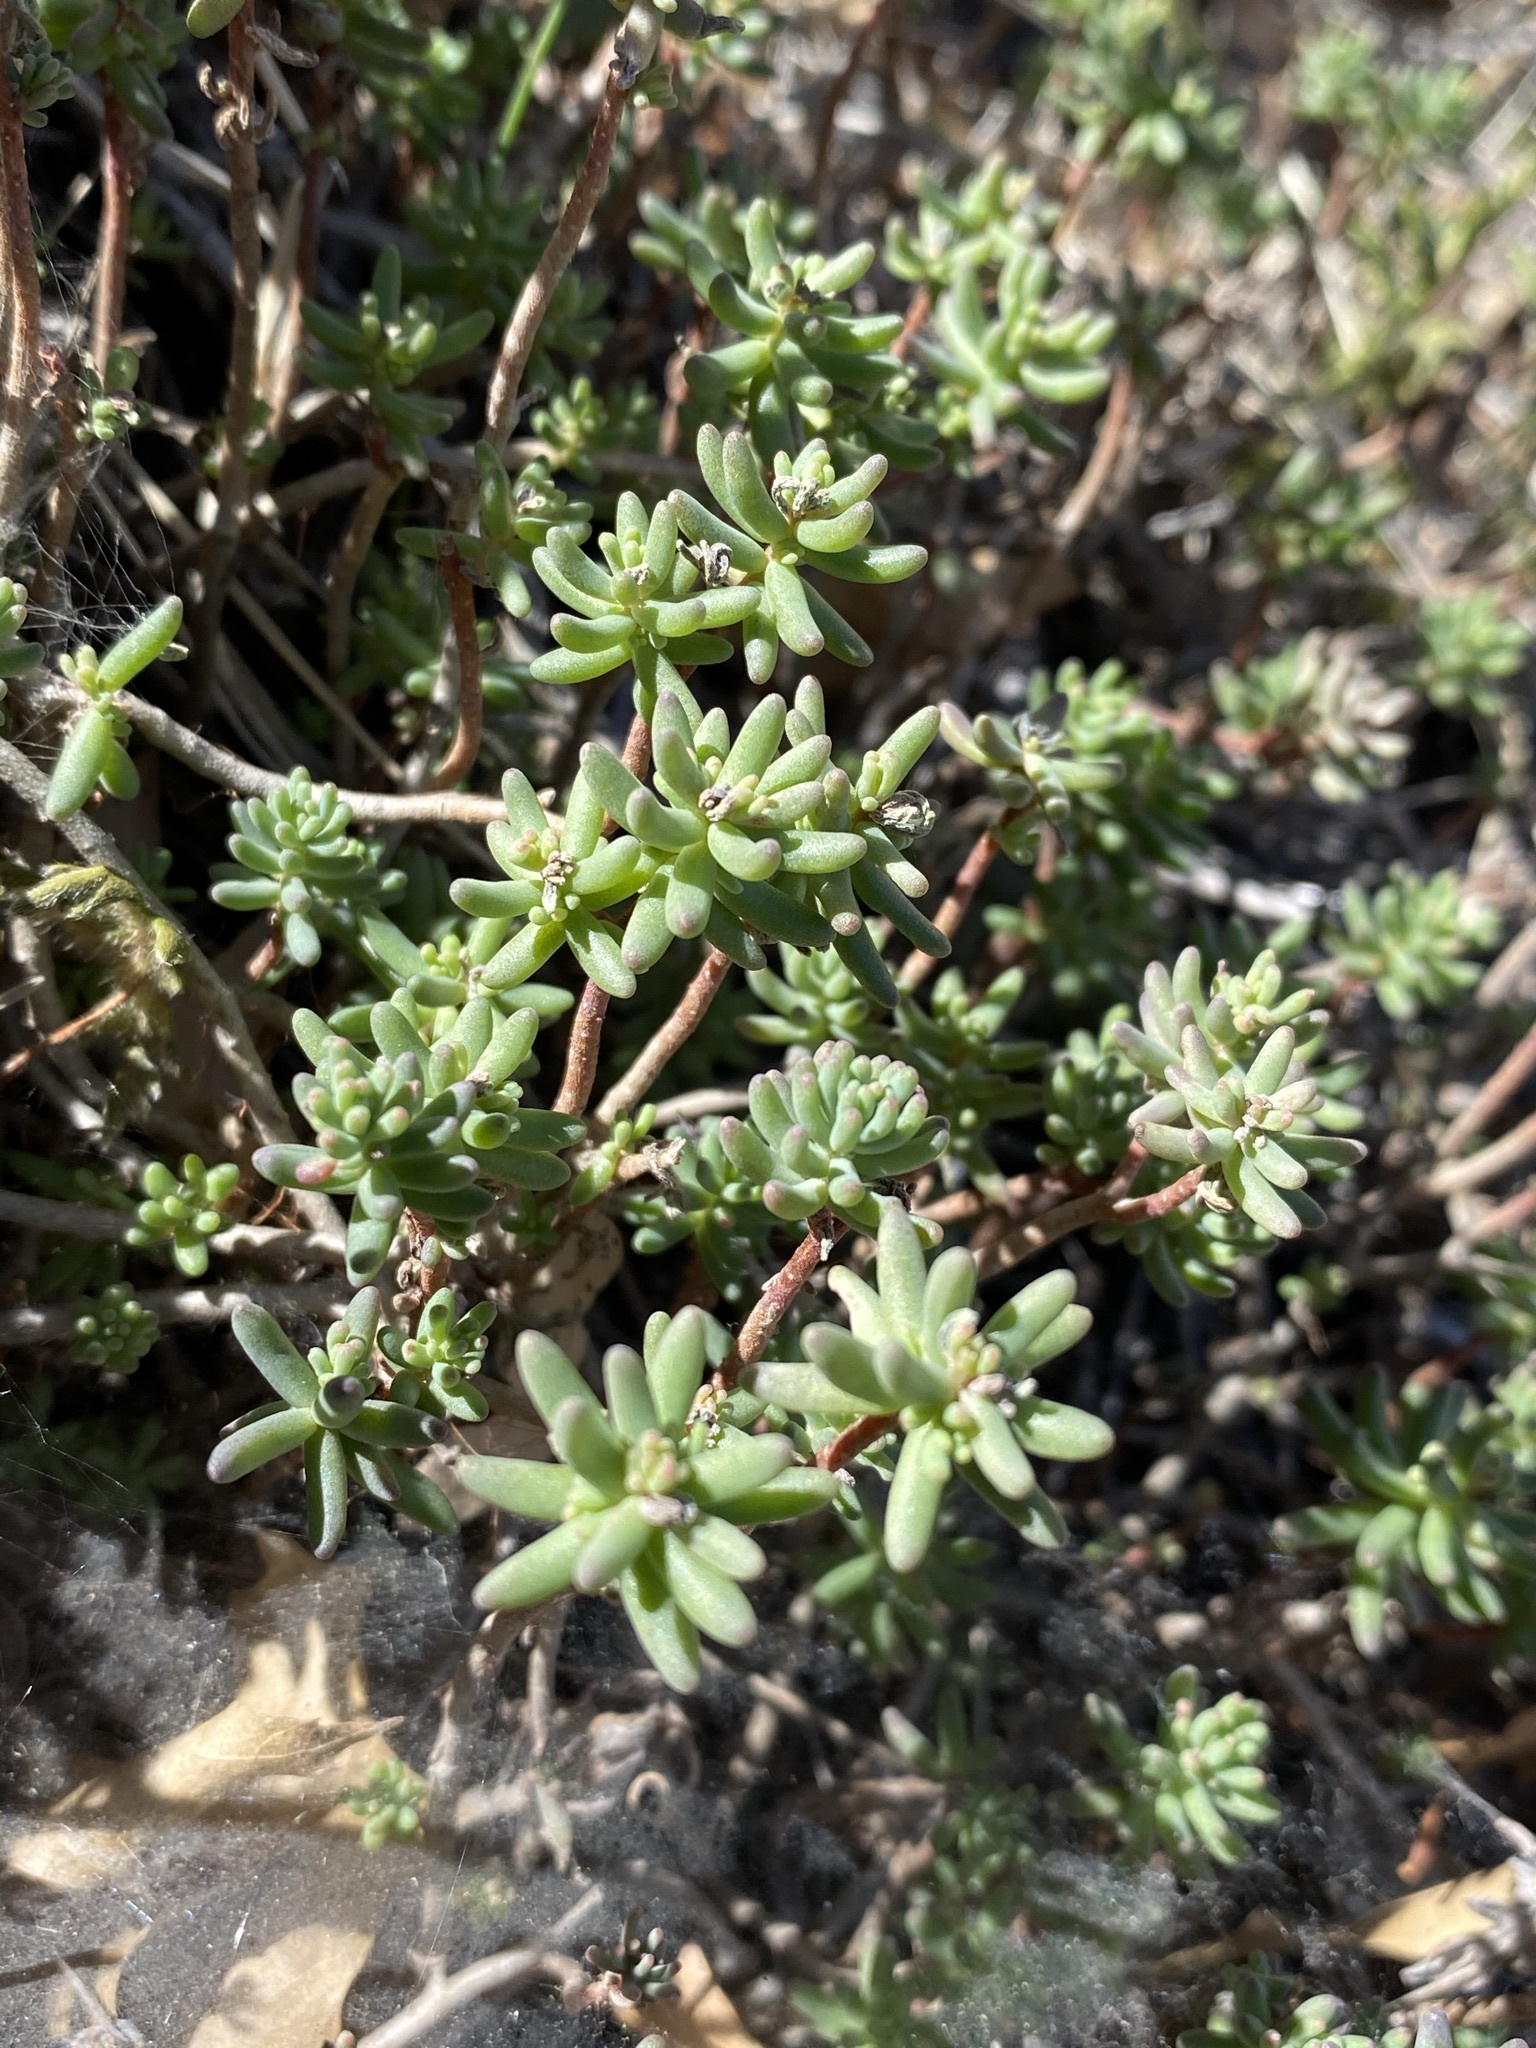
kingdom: Plantae
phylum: Tracheophyta
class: Magnoliopsida
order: Saxifragales
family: Crassulaceae
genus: Sedum
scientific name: Sedum havardii
